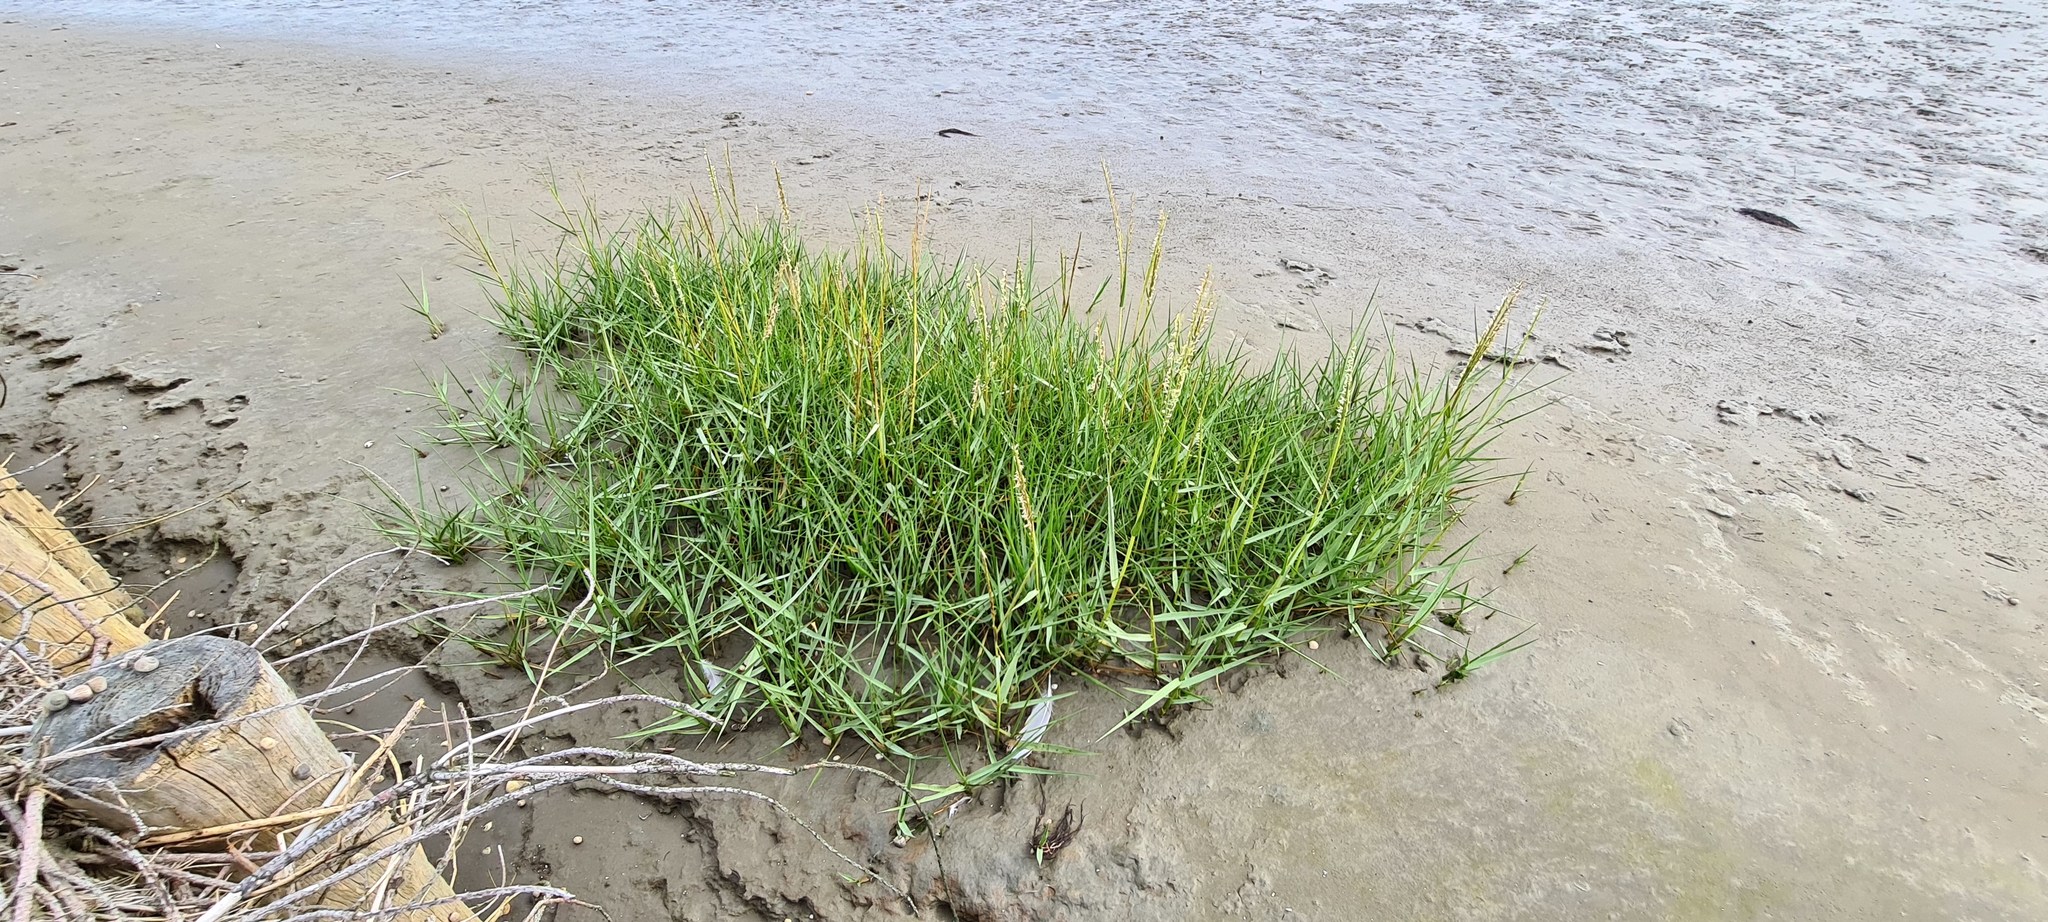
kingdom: Plantae
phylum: Tracheophyta
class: Liliopsida
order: Poales
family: Poaceae
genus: Sporobolus
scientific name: Sporobolus anglicus
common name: English cordgrass
